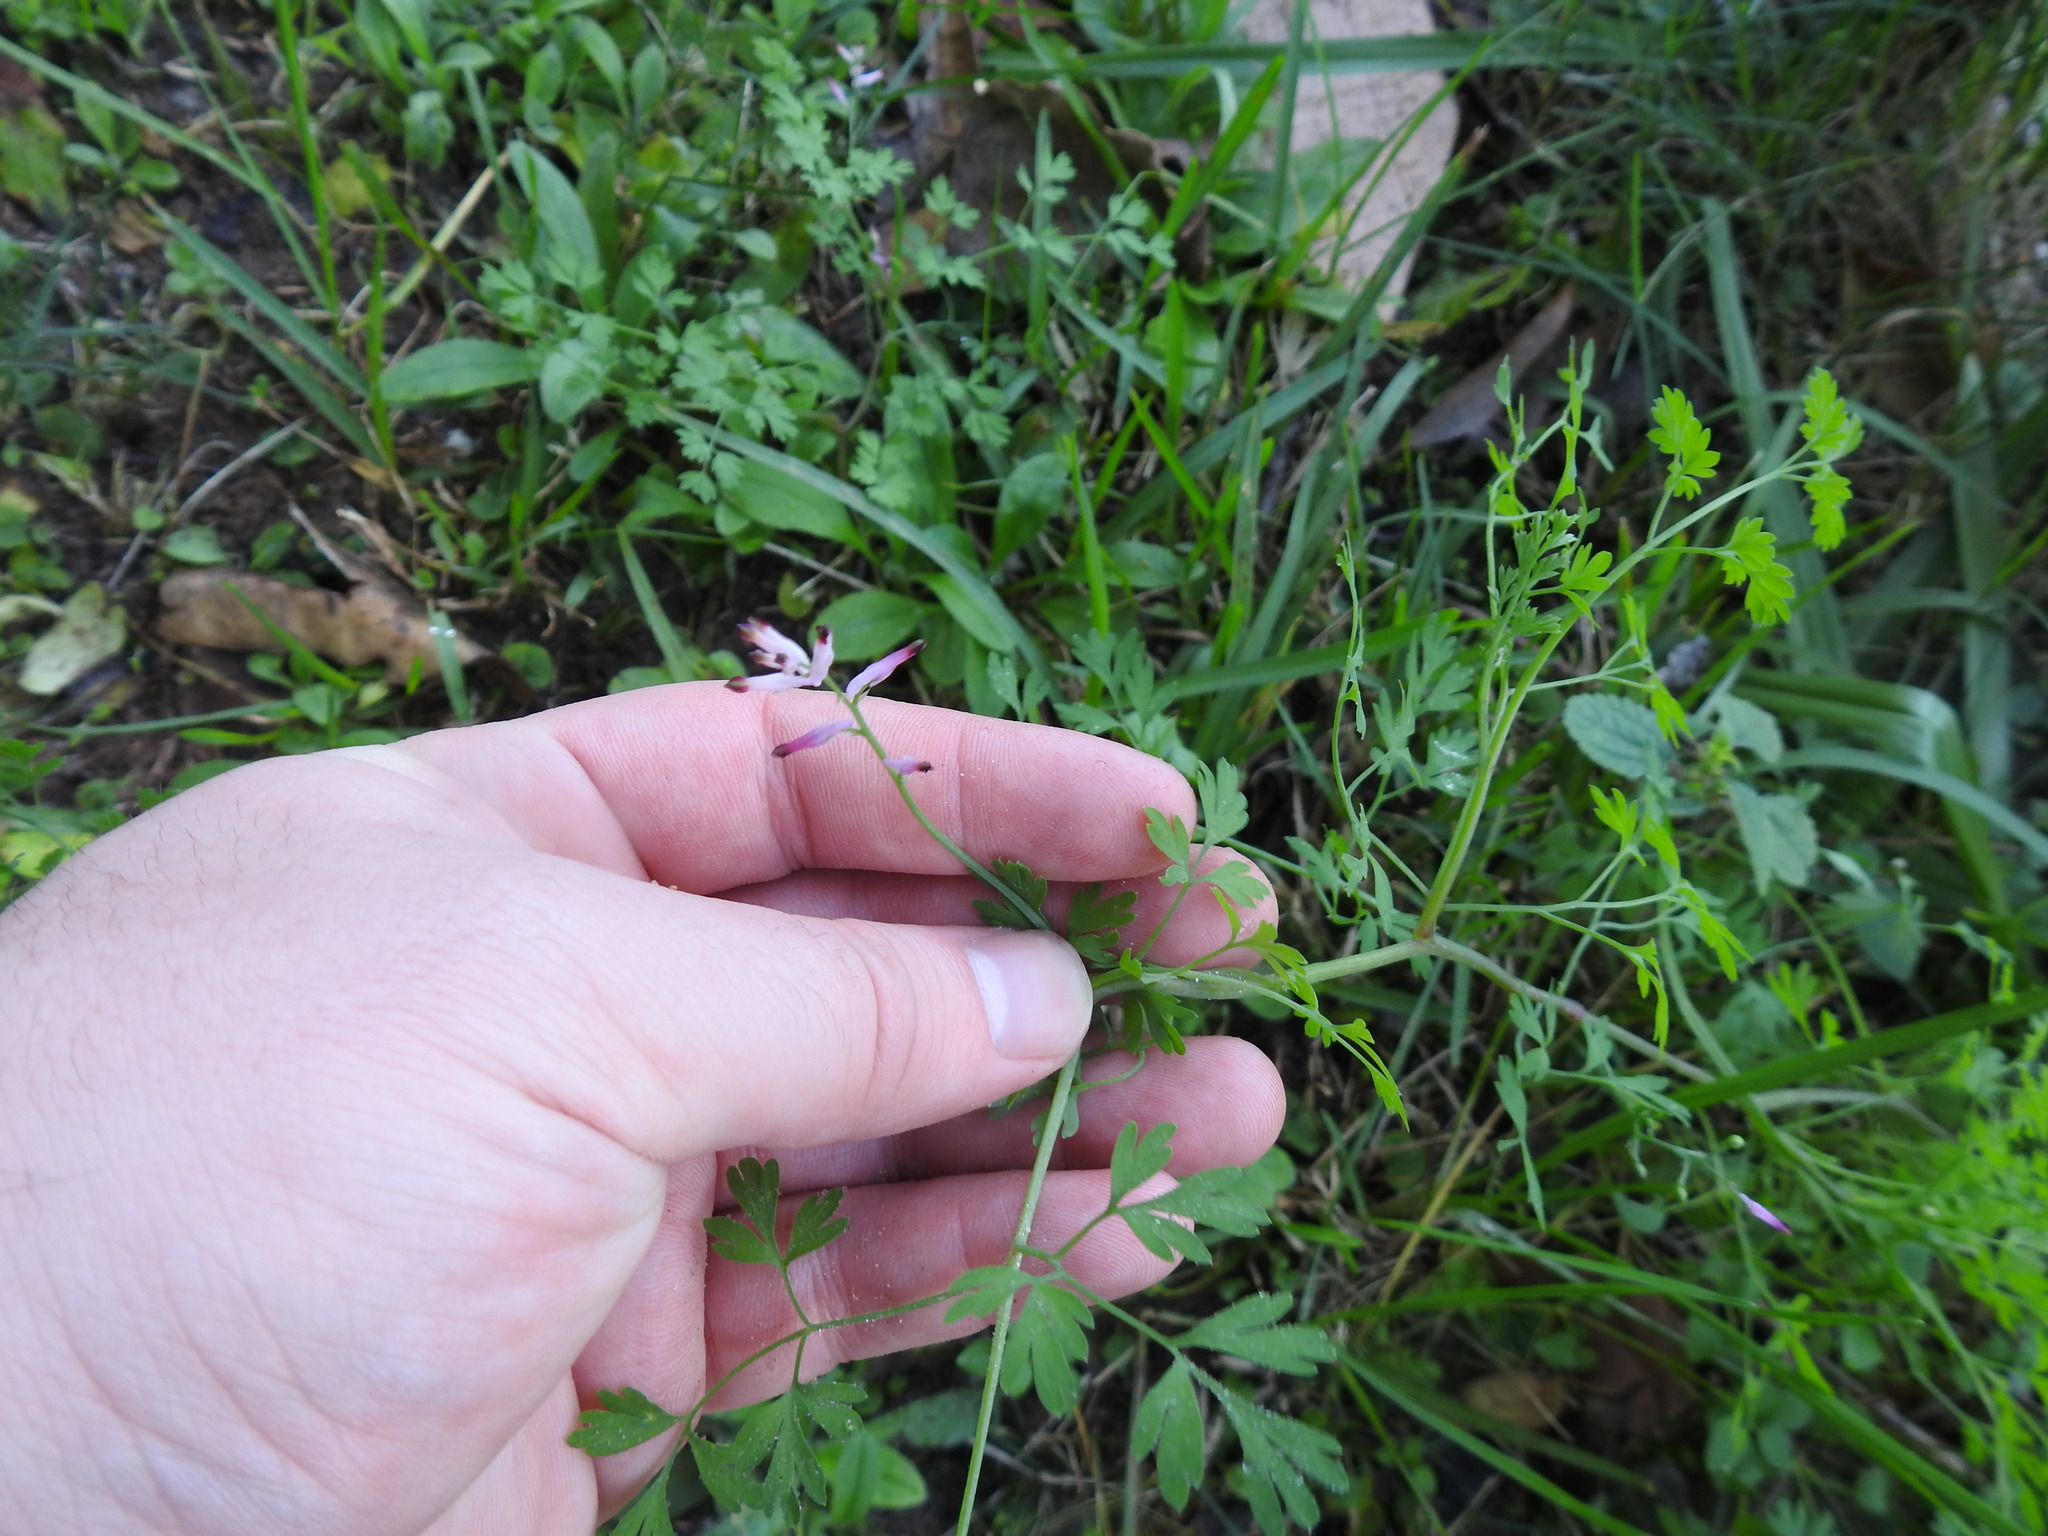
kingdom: Plantae
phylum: Tracheophyta
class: Magnoliopsida
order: Ranunculales
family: Papaveraceae
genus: Fumaria
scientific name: Fumaria muralis
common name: Common ramping-fumitory
